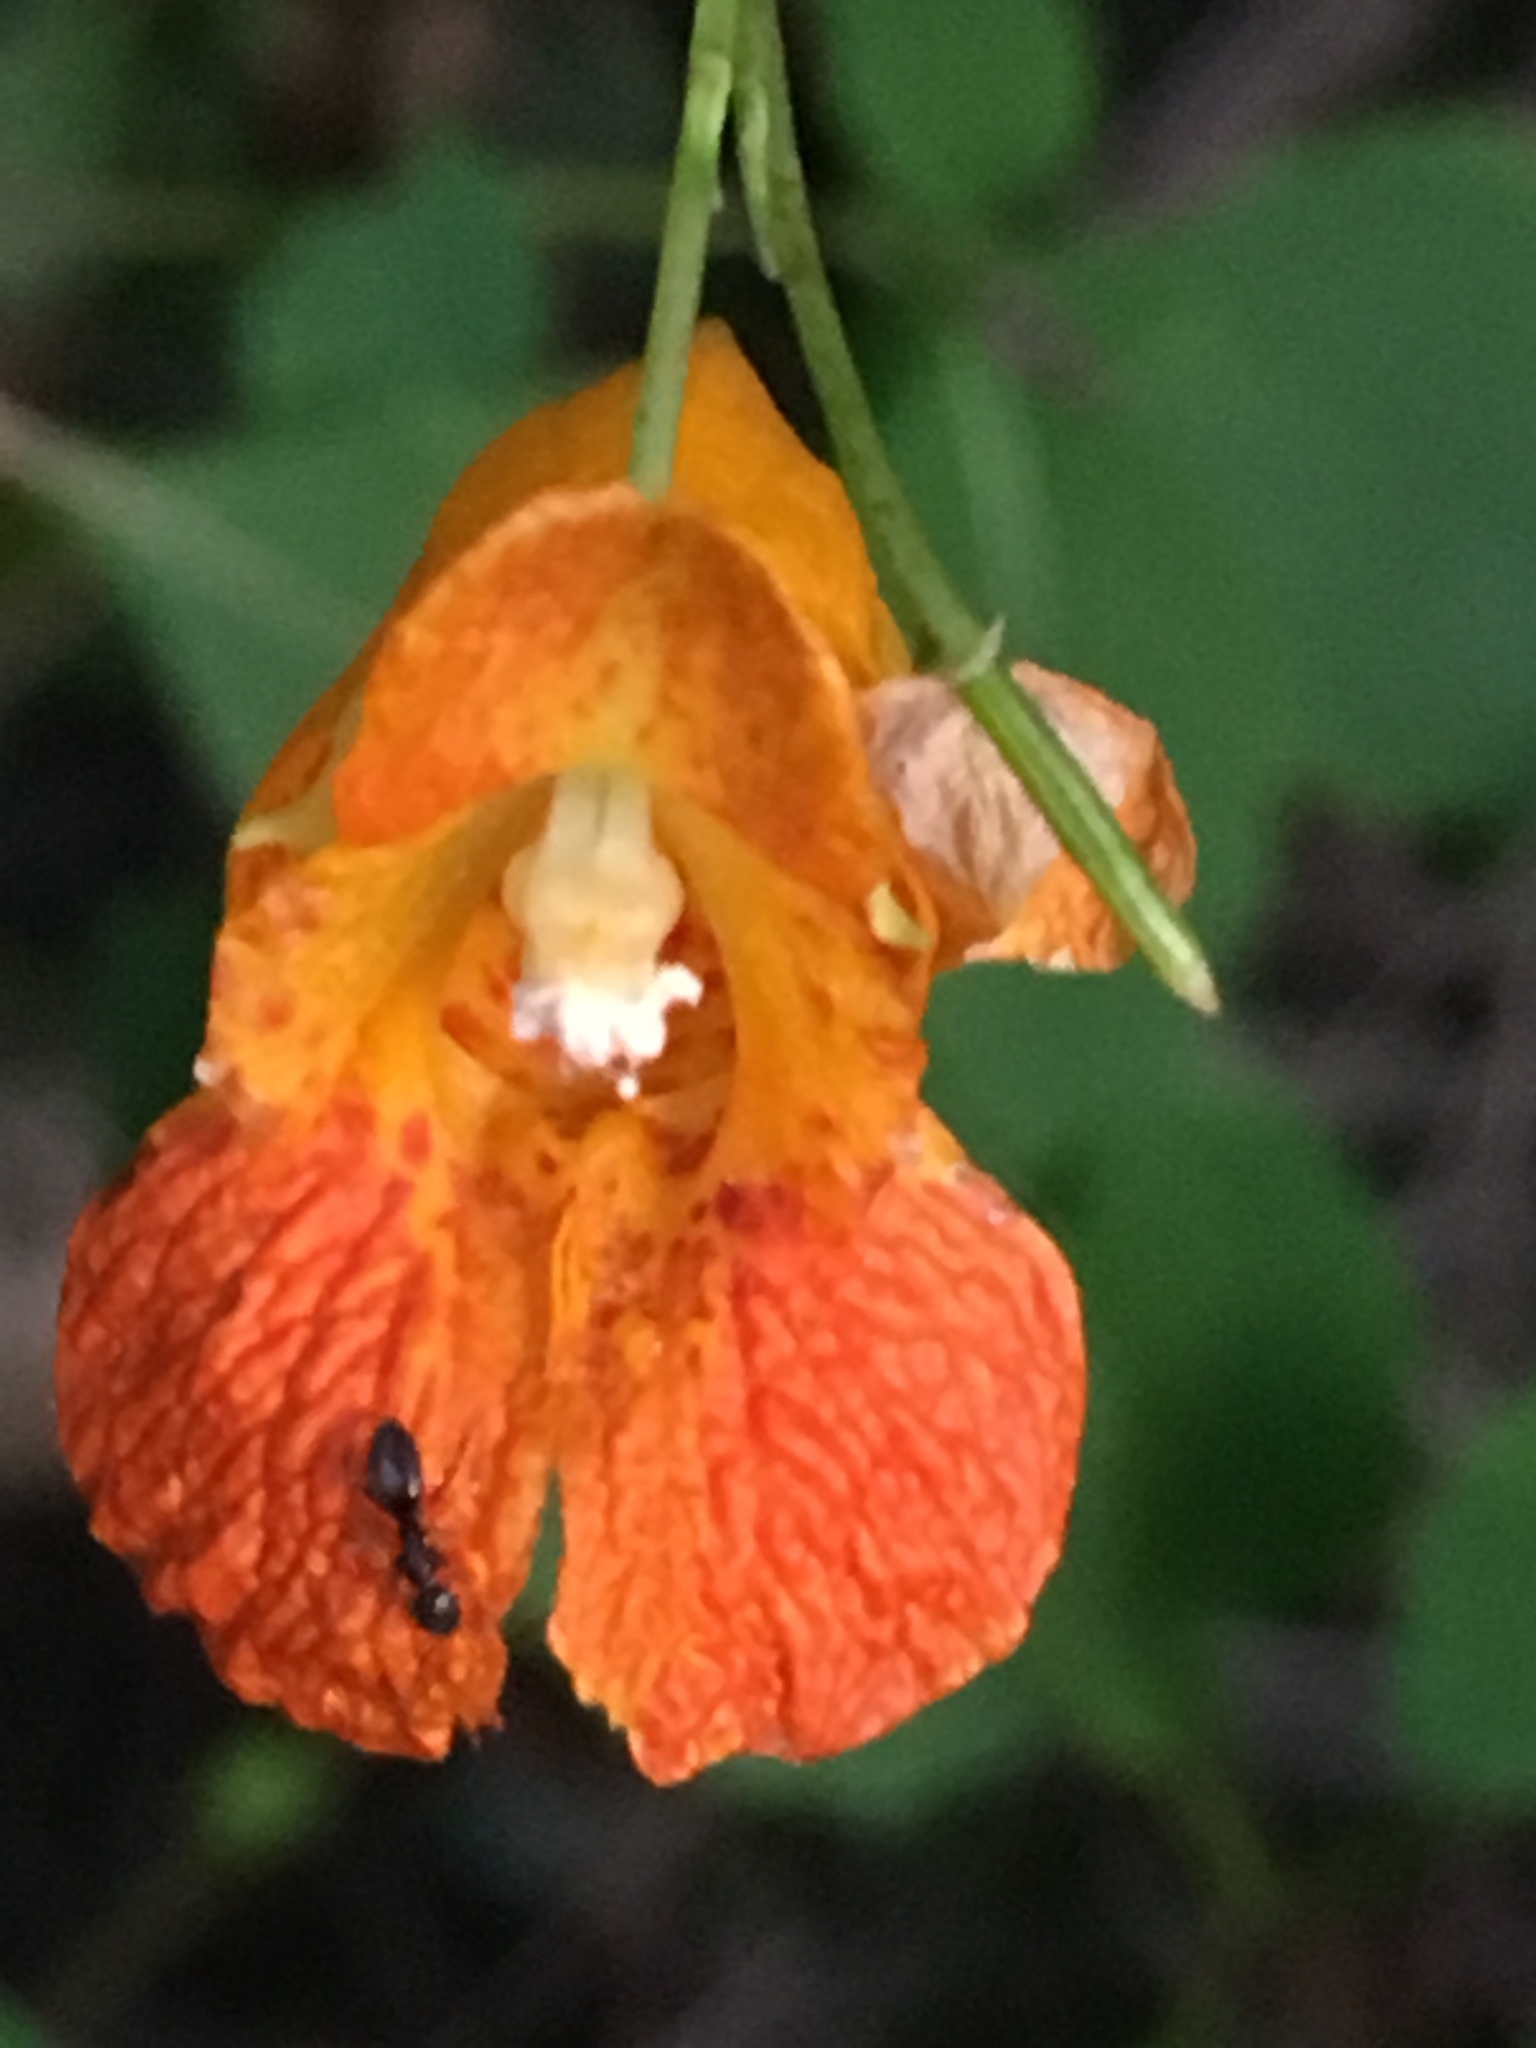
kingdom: Plantae
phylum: Tracheophyta
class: Magnoliopsida
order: Ericales
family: Balsaminaceae
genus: Impatiens
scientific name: Impatiens capensis
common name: Orange balsam
